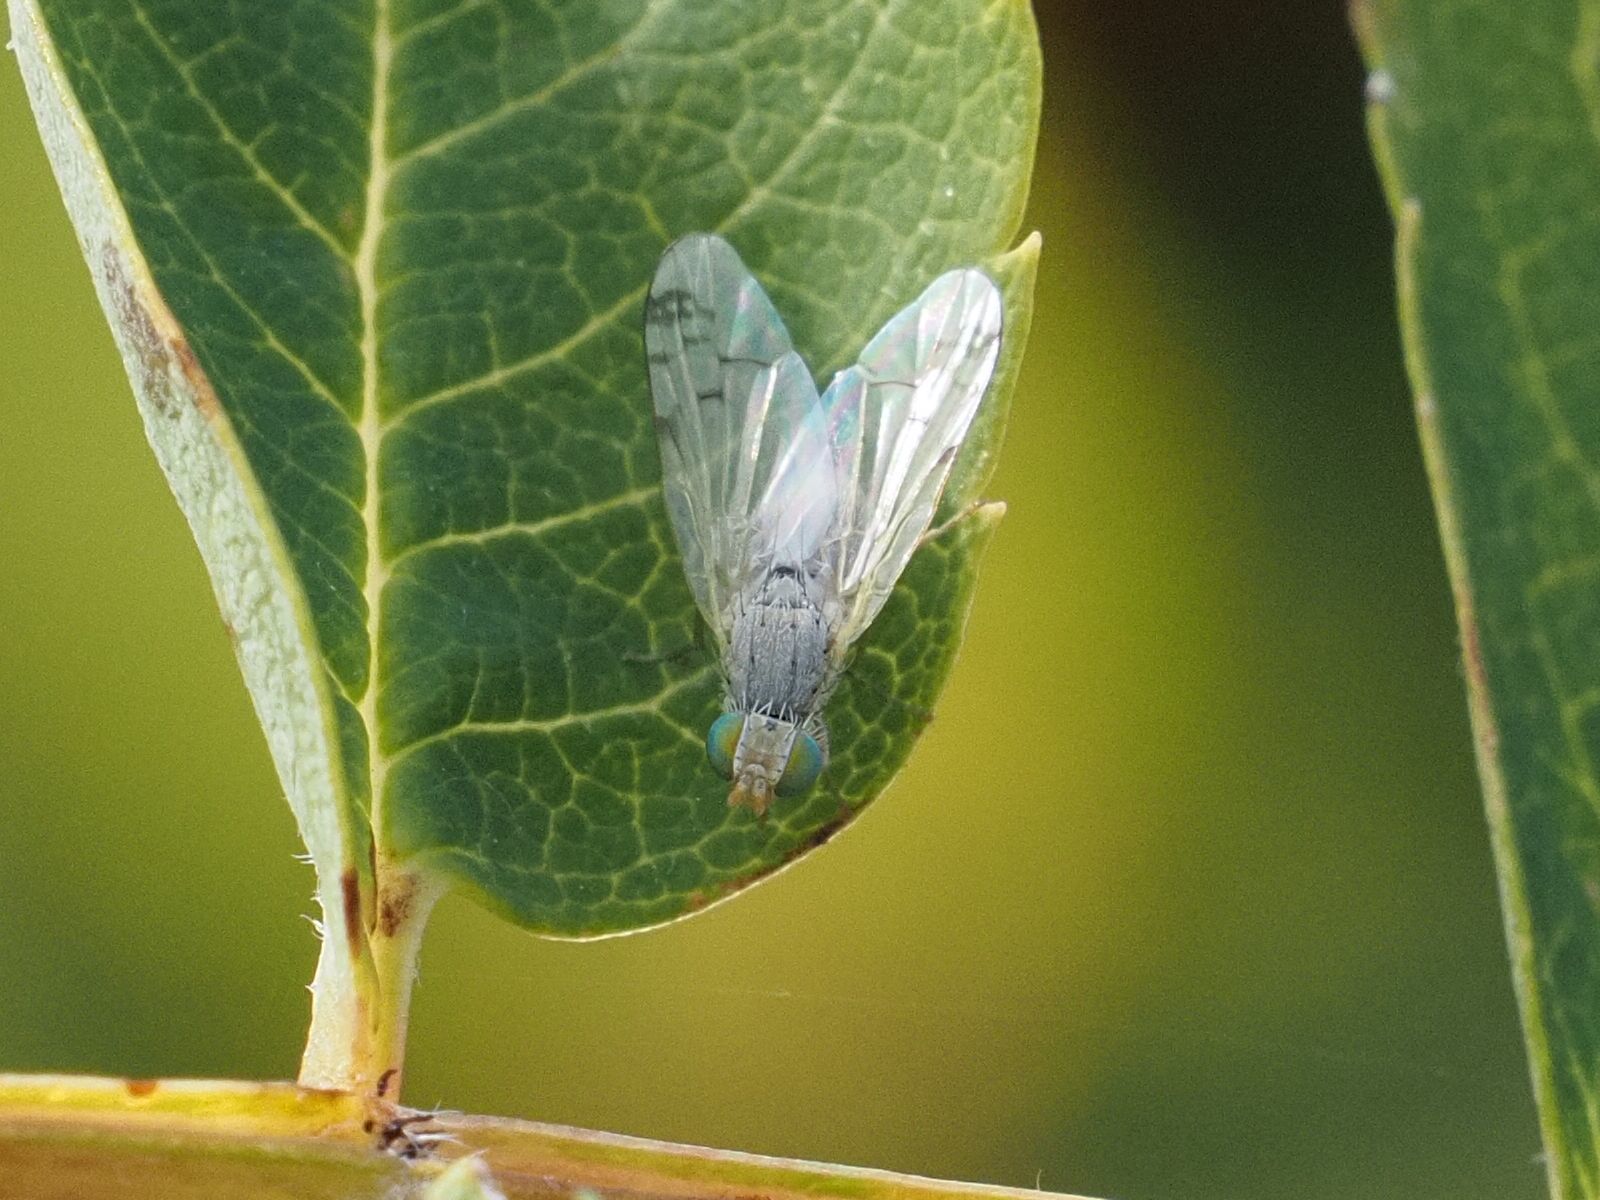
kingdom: Animalia
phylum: Arthropoda
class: Insecta
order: Diptera
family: Tephritidae
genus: Acanthiophilus
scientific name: Acanthiophilus helianthi
